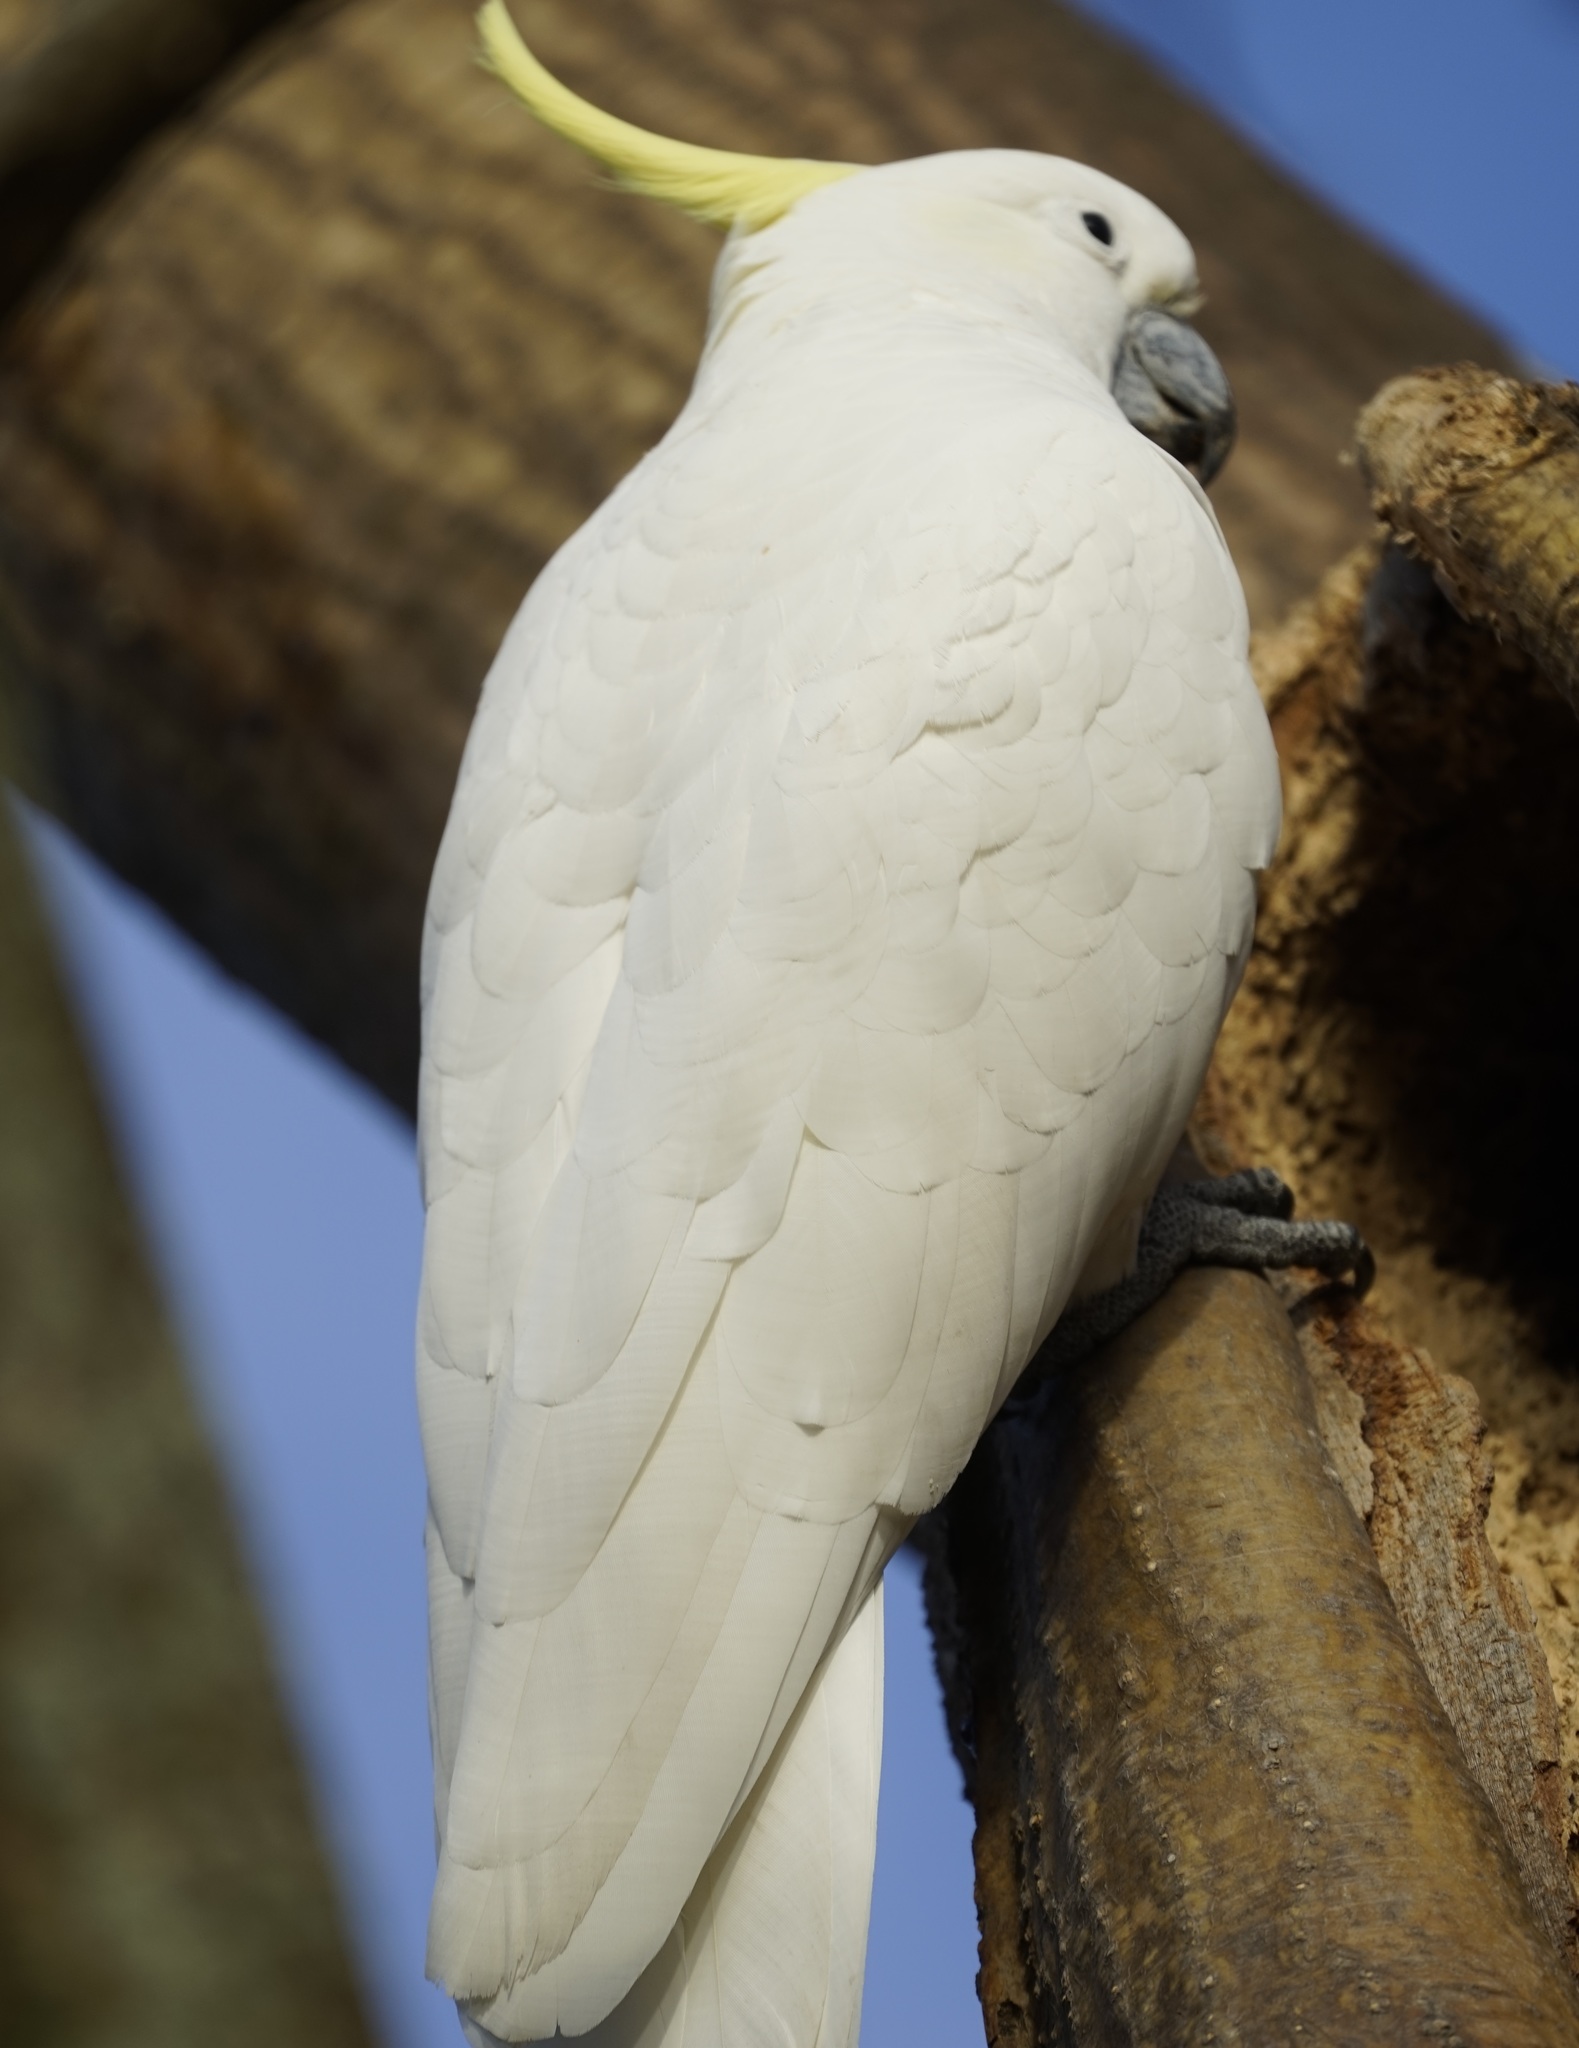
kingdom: Animalia
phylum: Chordata
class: Aves
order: Psittaciformes
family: Psittacidae
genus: Cacatua
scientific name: Cacatua galerita
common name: Sulphur-crested cockatoo
